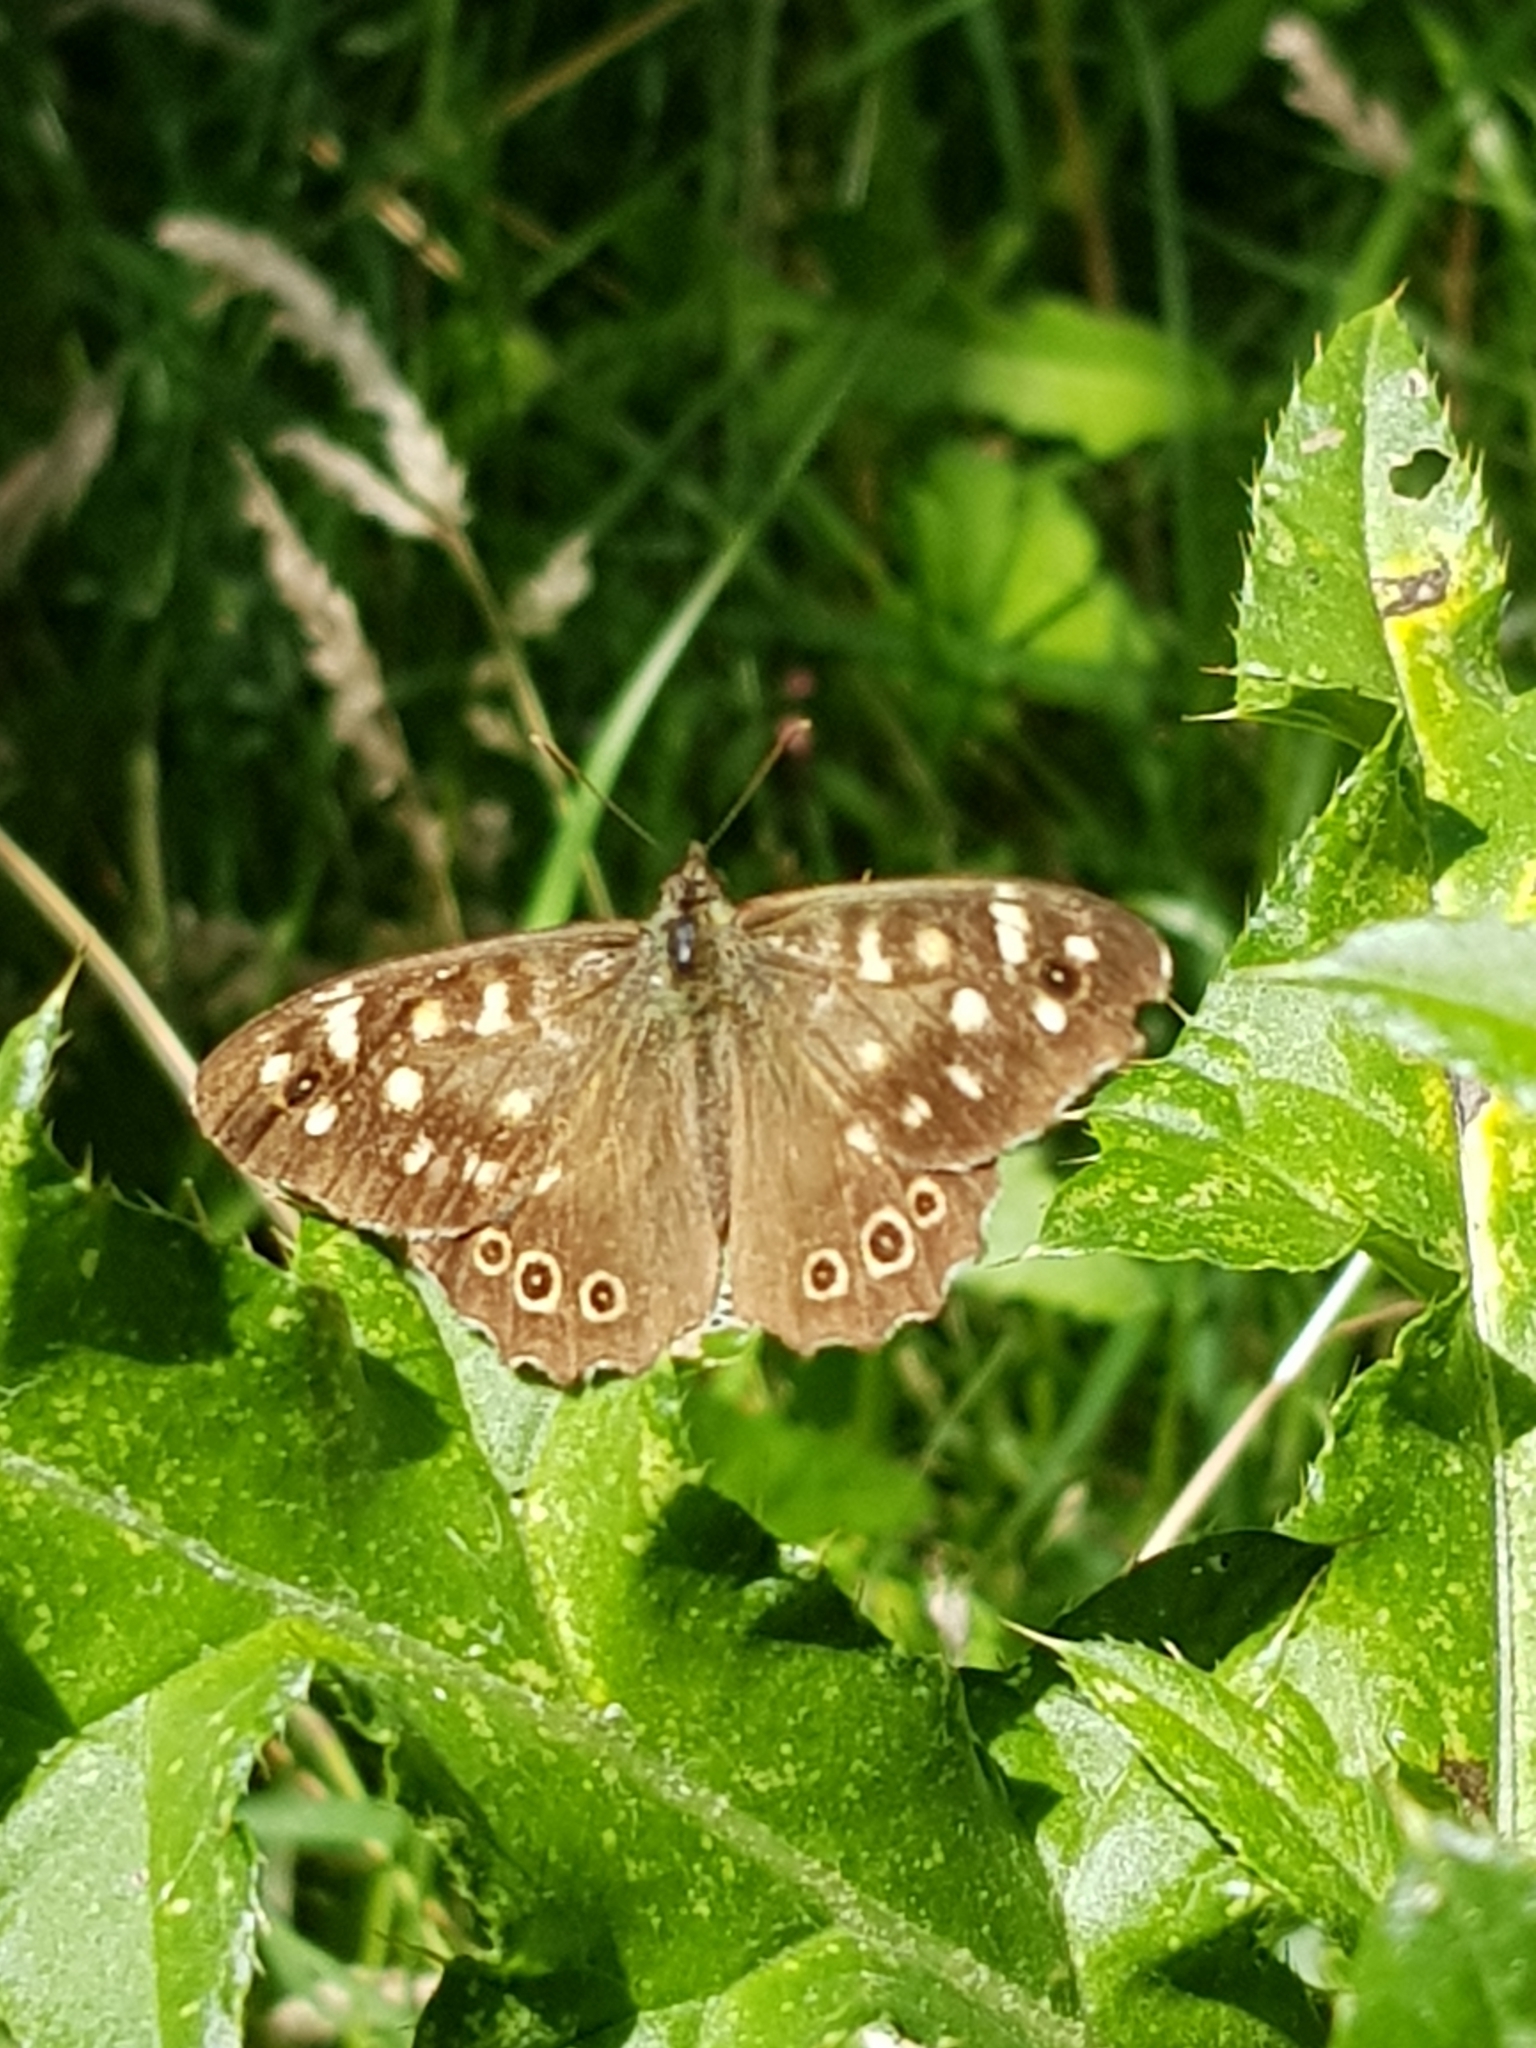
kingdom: Animalia
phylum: Arthropoda
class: Insecta
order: Lepidoptera
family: Nymphalidae
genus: Pararge
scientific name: Pararge aegeria
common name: Speckled wood
